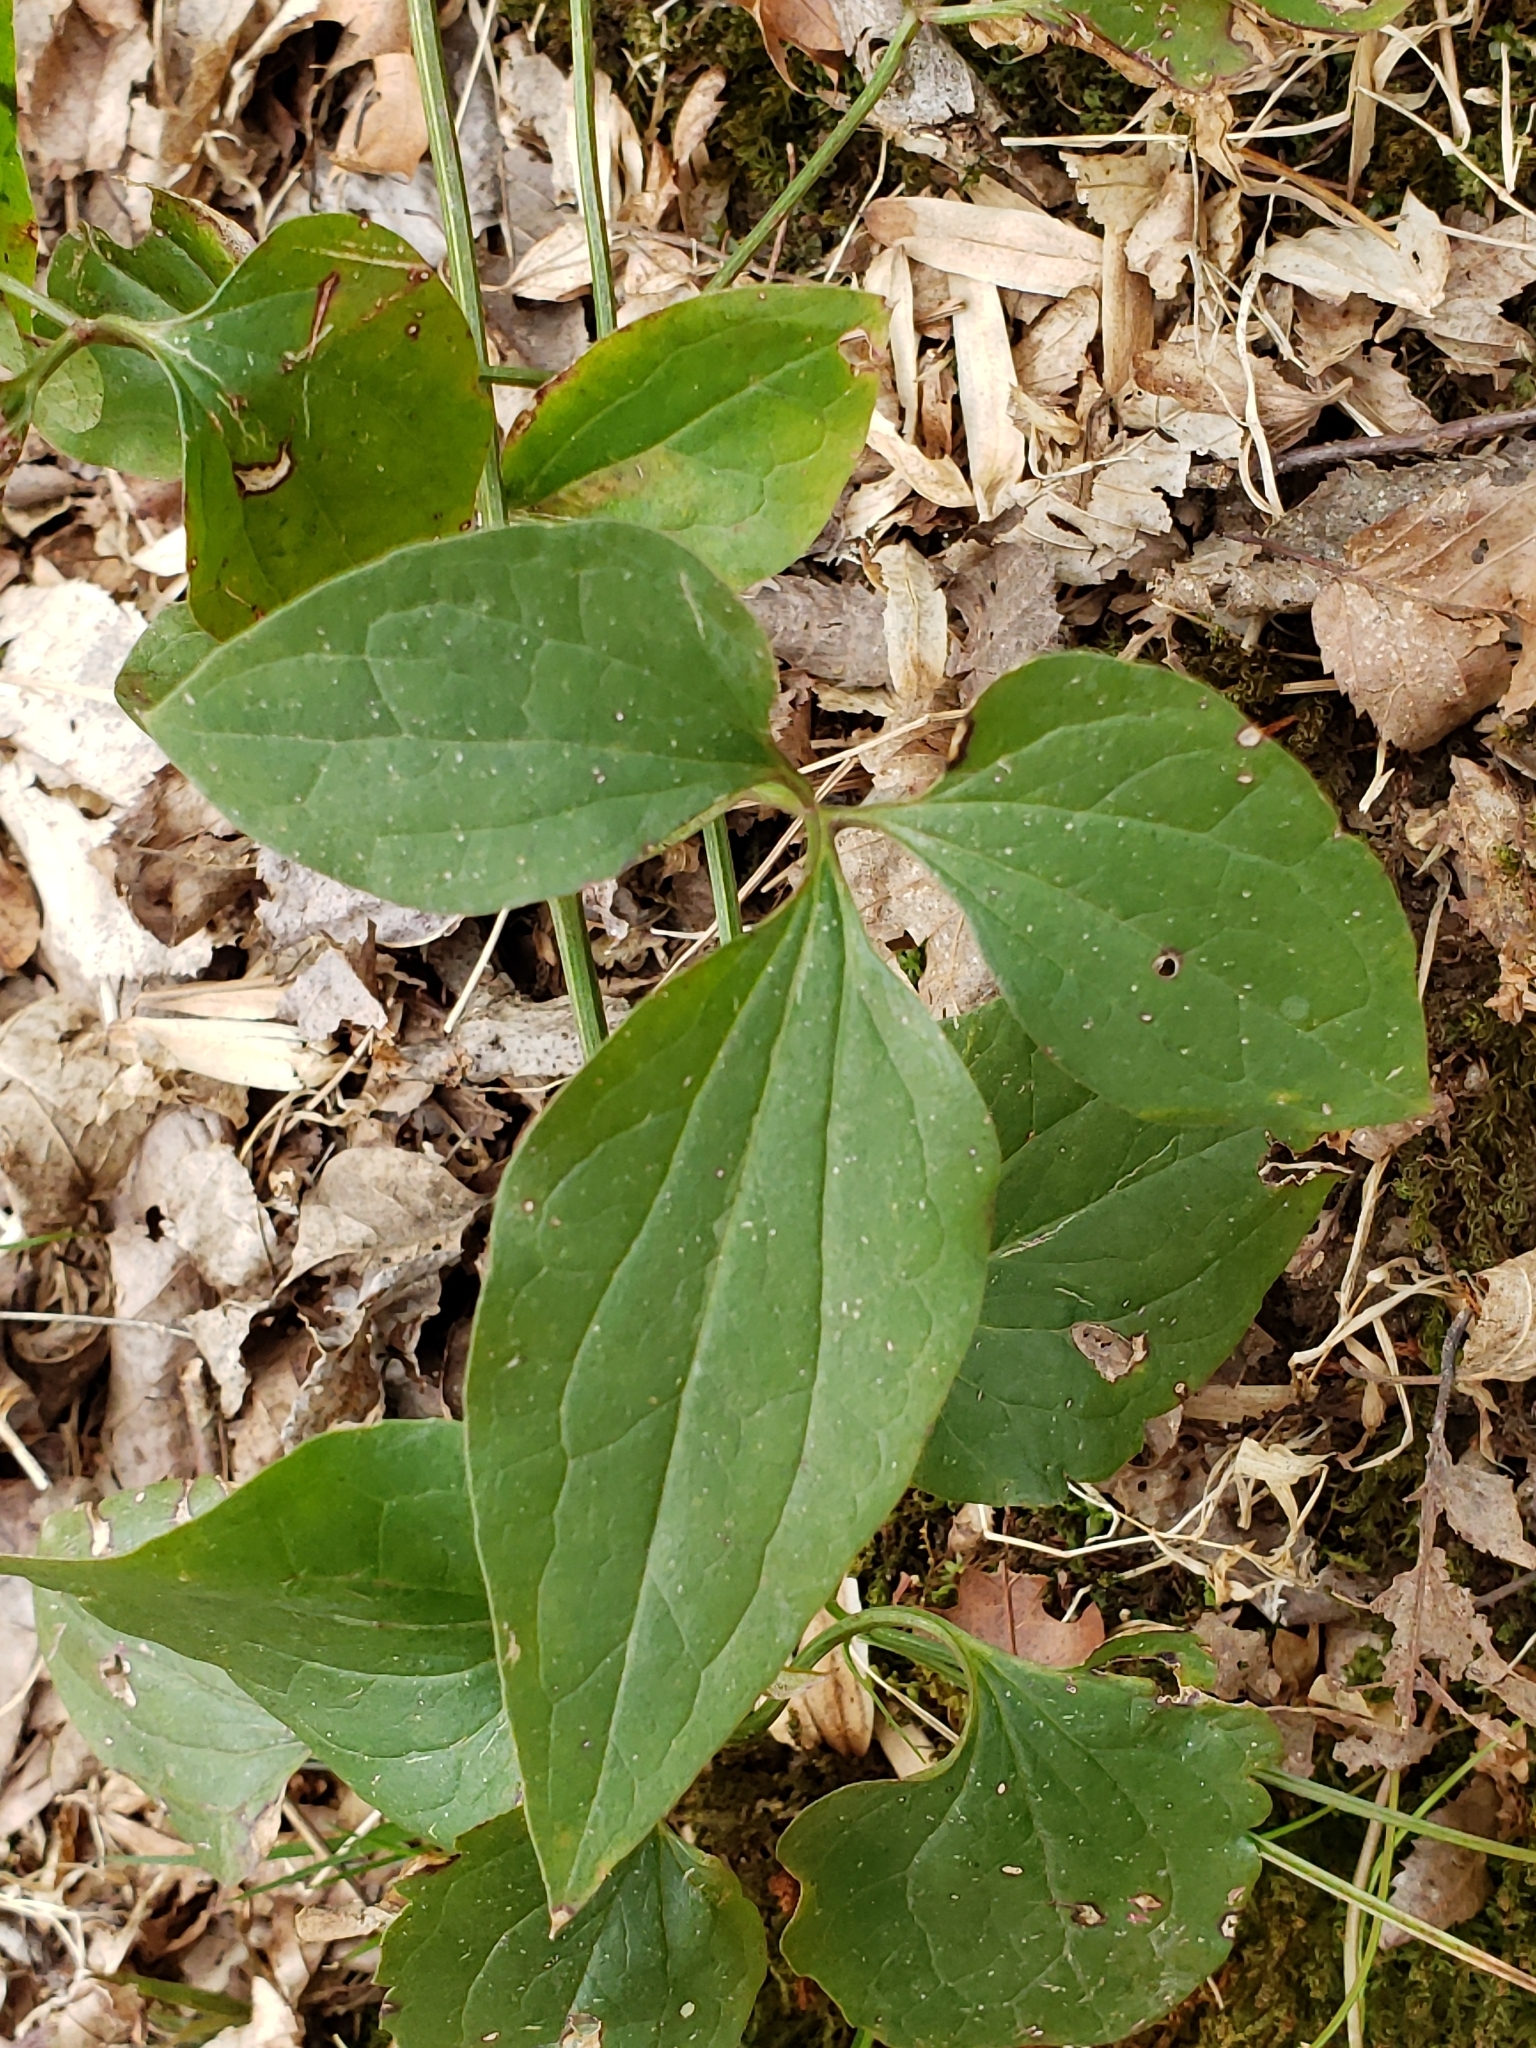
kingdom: Plantae
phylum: Tracheophyta
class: Magnoliopsida
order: Ranunculales
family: Ranunculaceae
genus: Clematis
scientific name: Clematis terniflora
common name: Sweet autumn clematis
